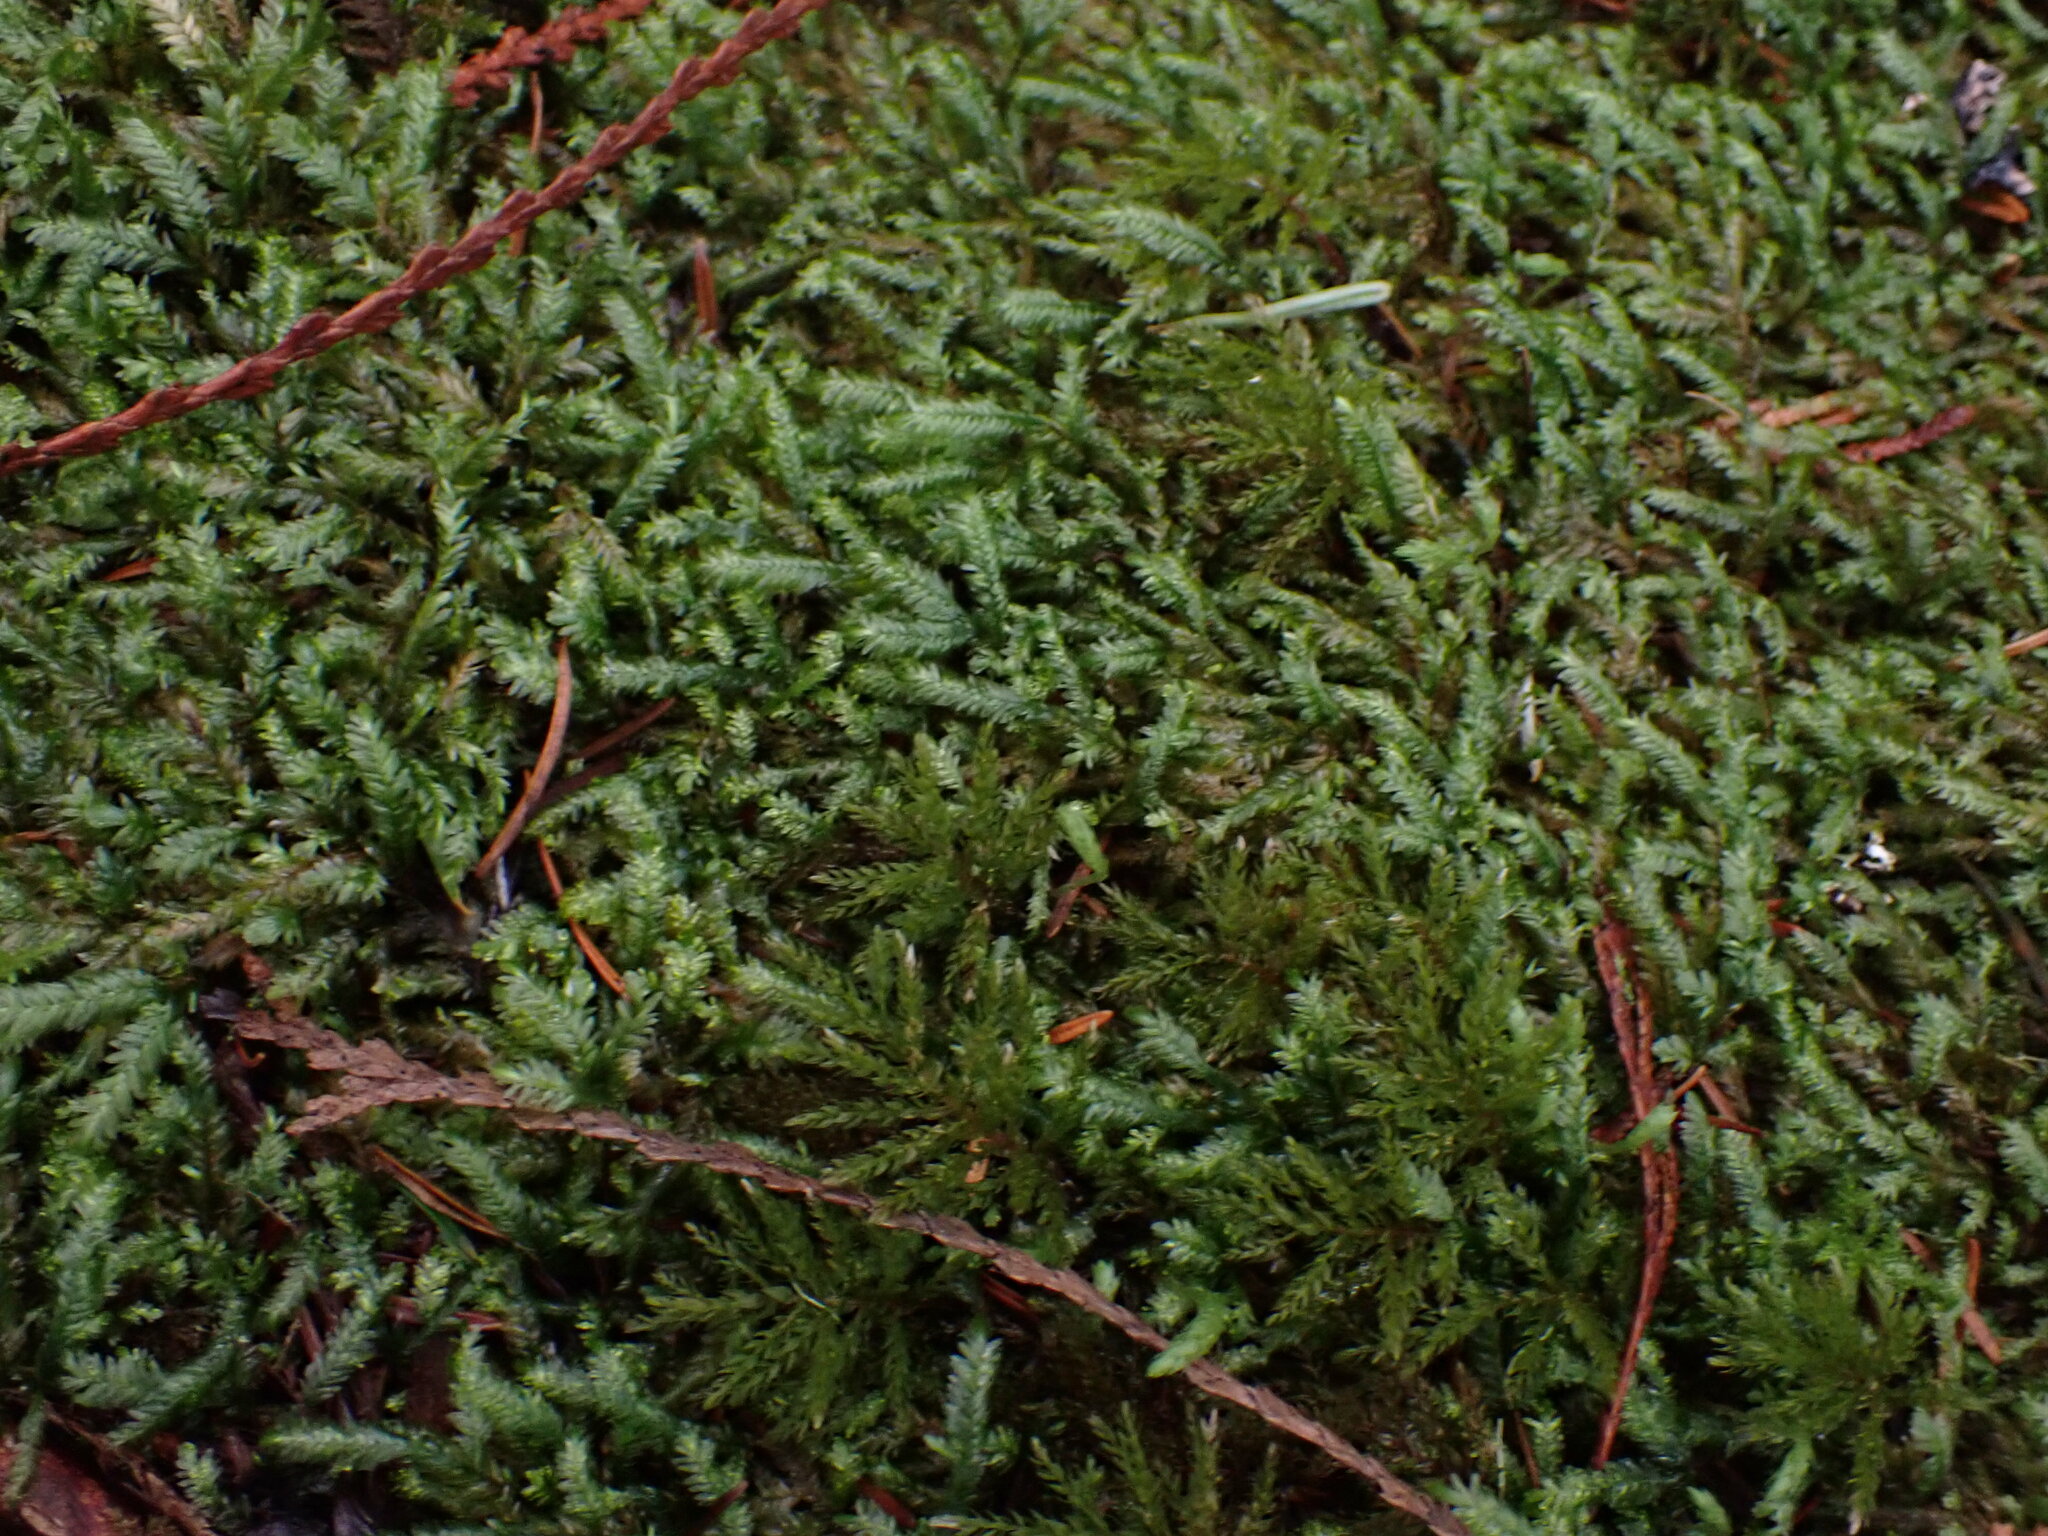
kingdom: Plantae
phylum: Bryophyta
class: Bryopsida
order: Hypnales
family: Neckeraceae
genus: Dannorrisia
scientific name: Dannorrisia bigelovii
